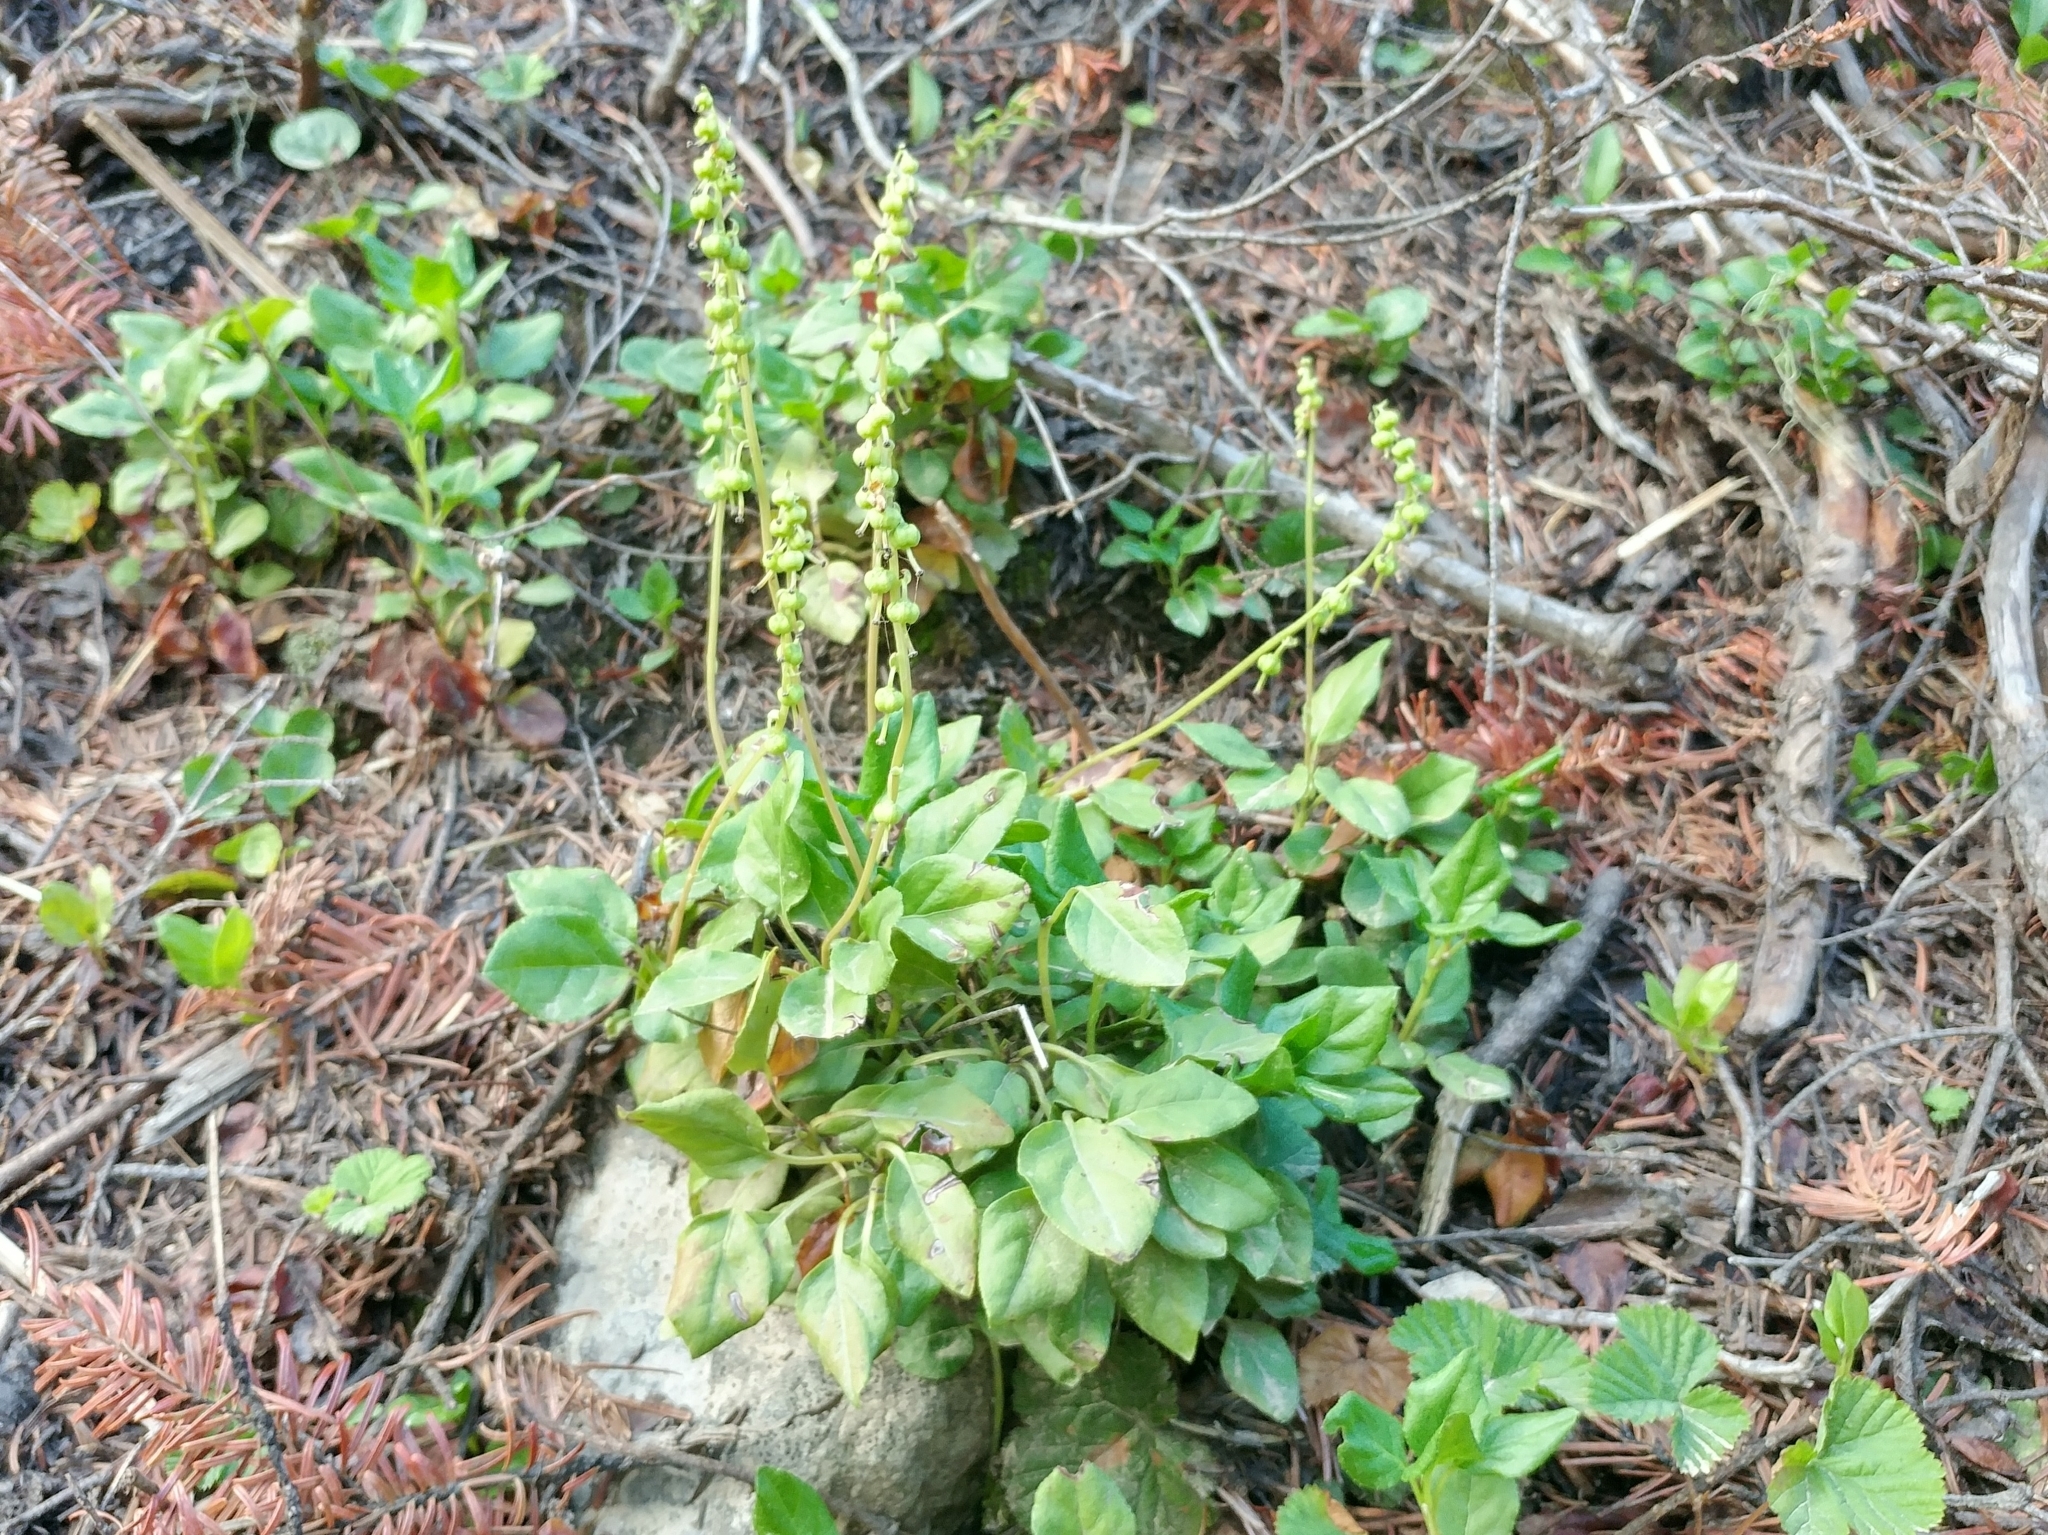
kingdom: Plantae
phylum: Tracheophyta
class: Magnoliopsida
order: Ericales
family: Ericaceae
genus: Orthilia
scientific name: Orthilia secunda
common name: One-sided orthilia
